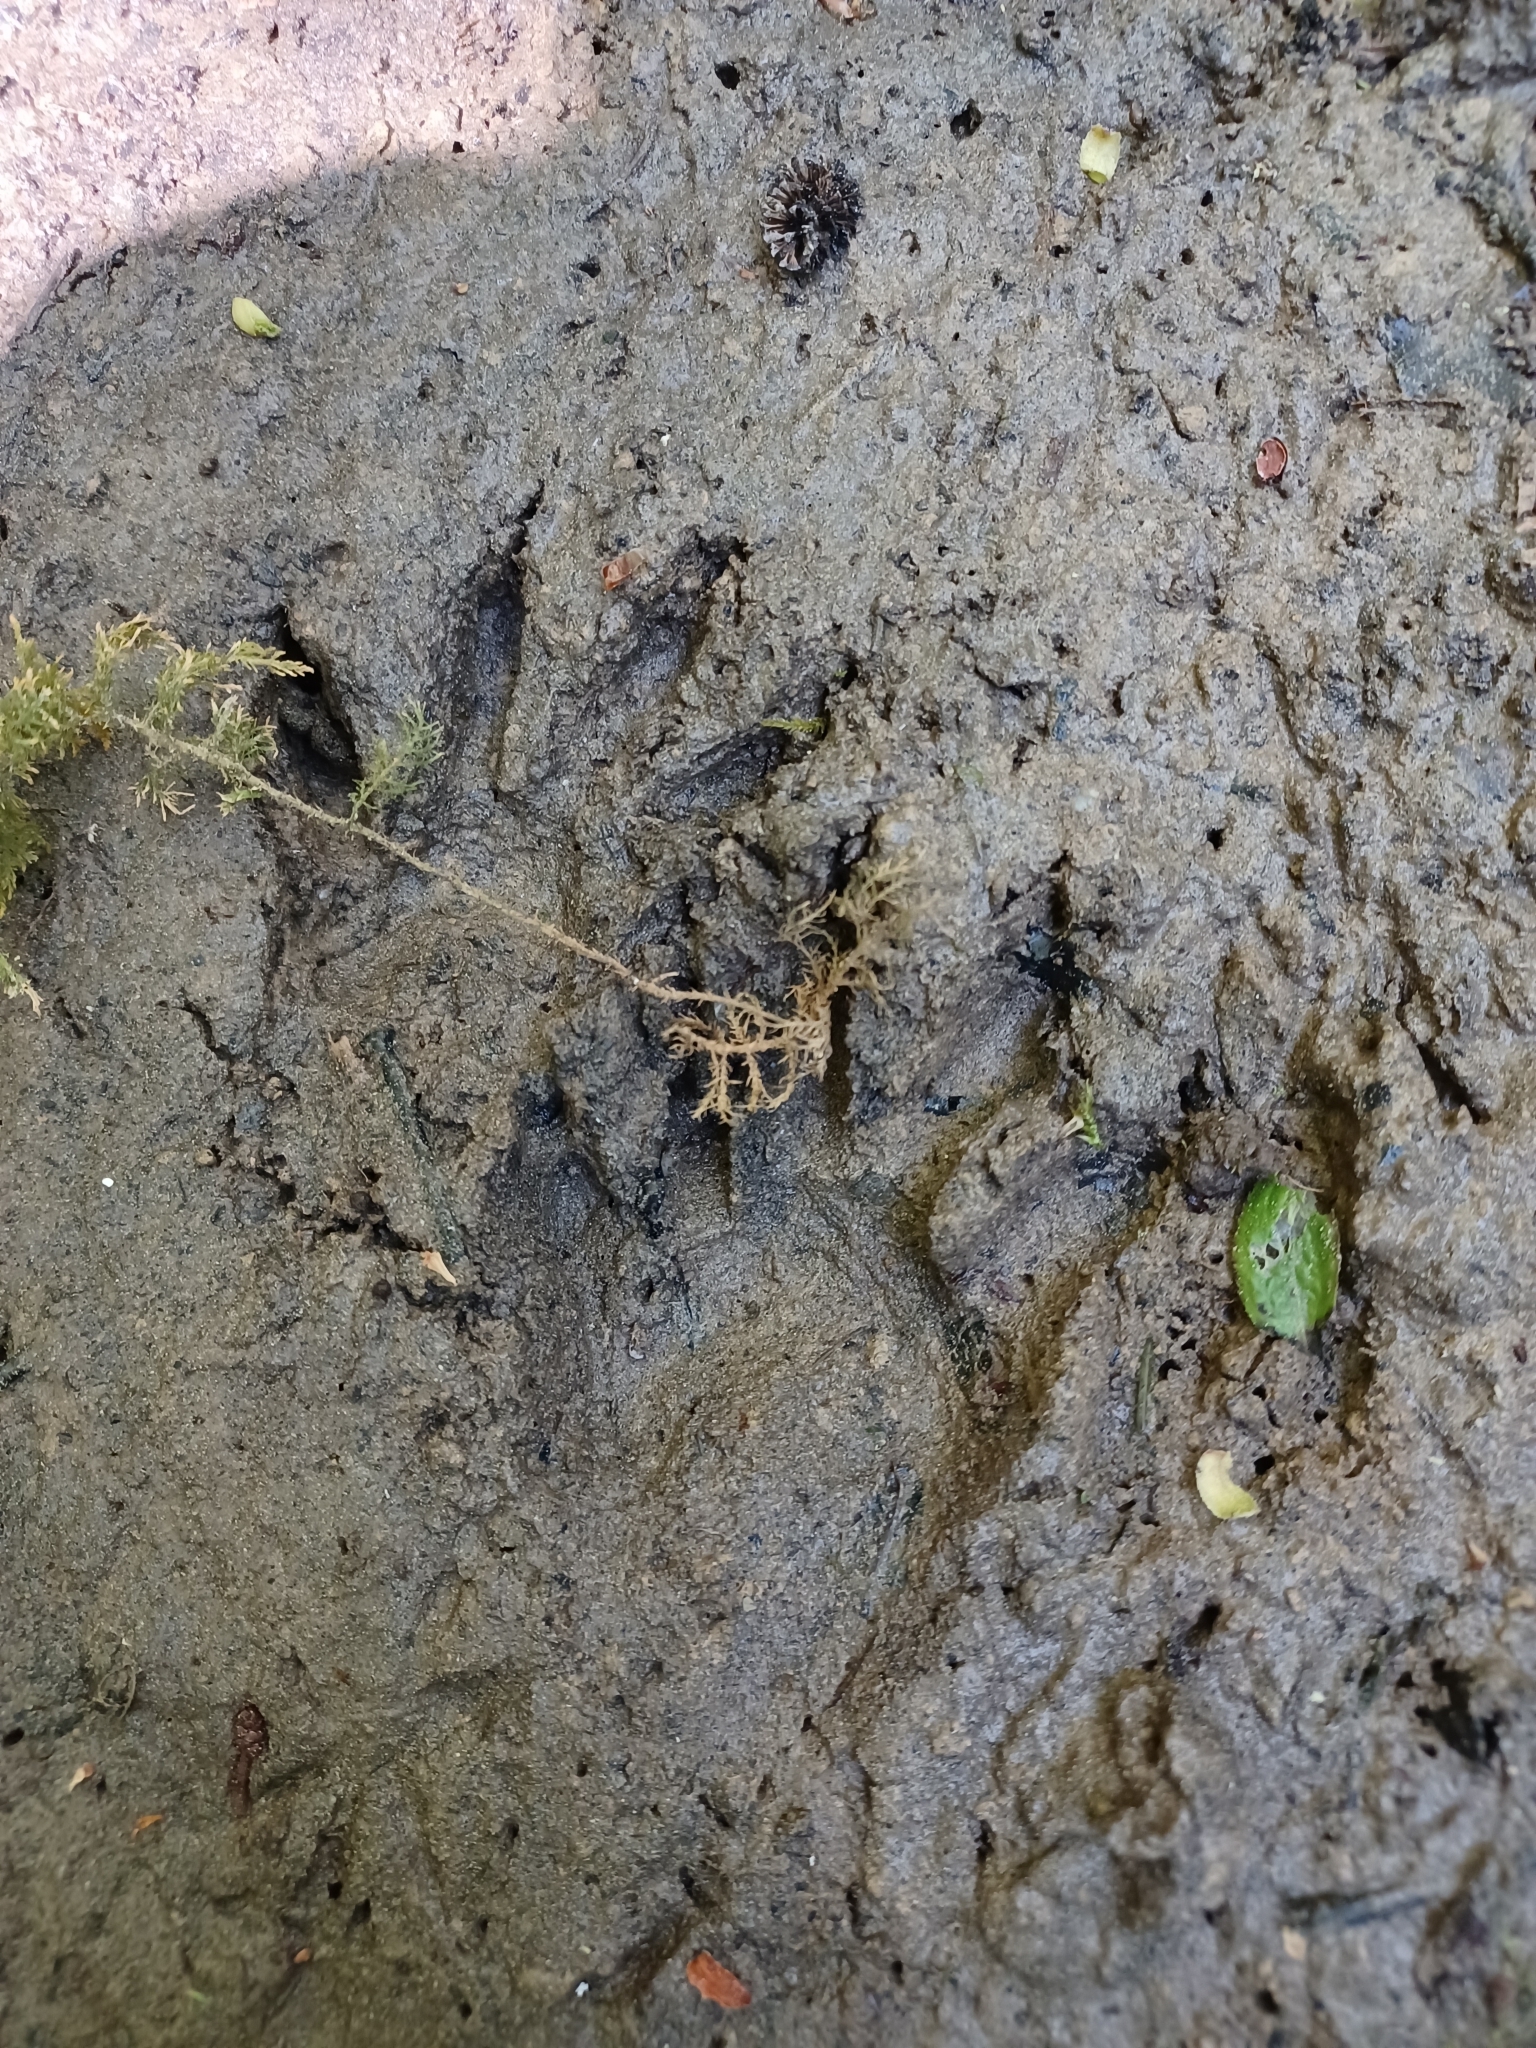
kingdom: Animalia
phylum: Chordata
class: Mammalia
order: Carnivora
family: Procyonidae
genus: Procyon
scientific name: Procyon lotor
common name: Raccoon
